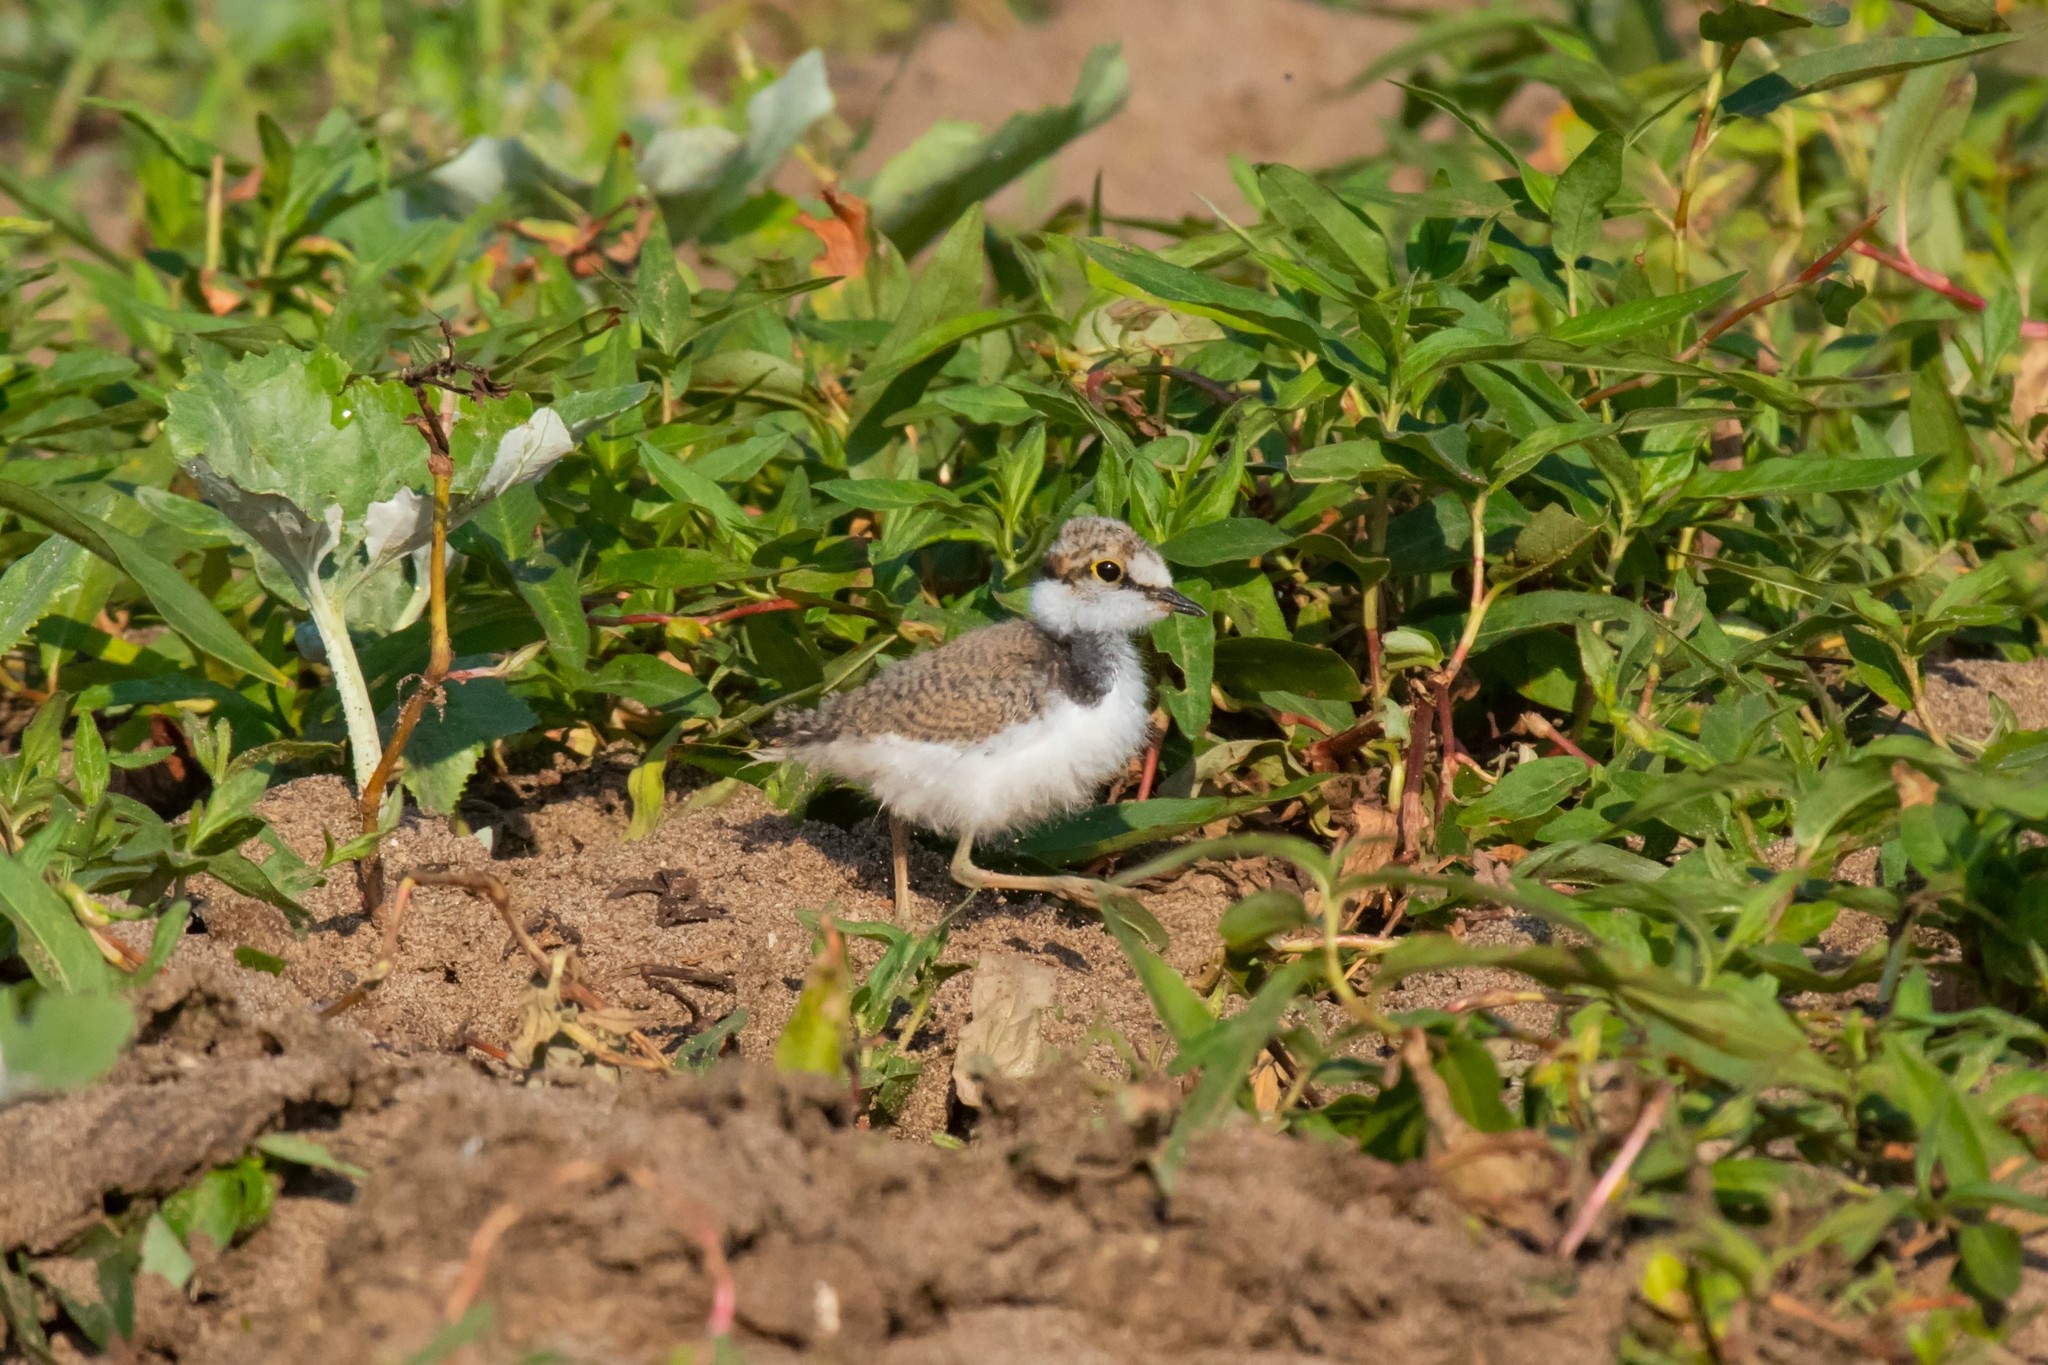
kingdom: Animalia
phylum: Chordata
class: Aves
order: Charadriiformes
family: Charadriidae
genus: Charadrius
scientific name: Charadrius dubius
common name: Little ringed plover
